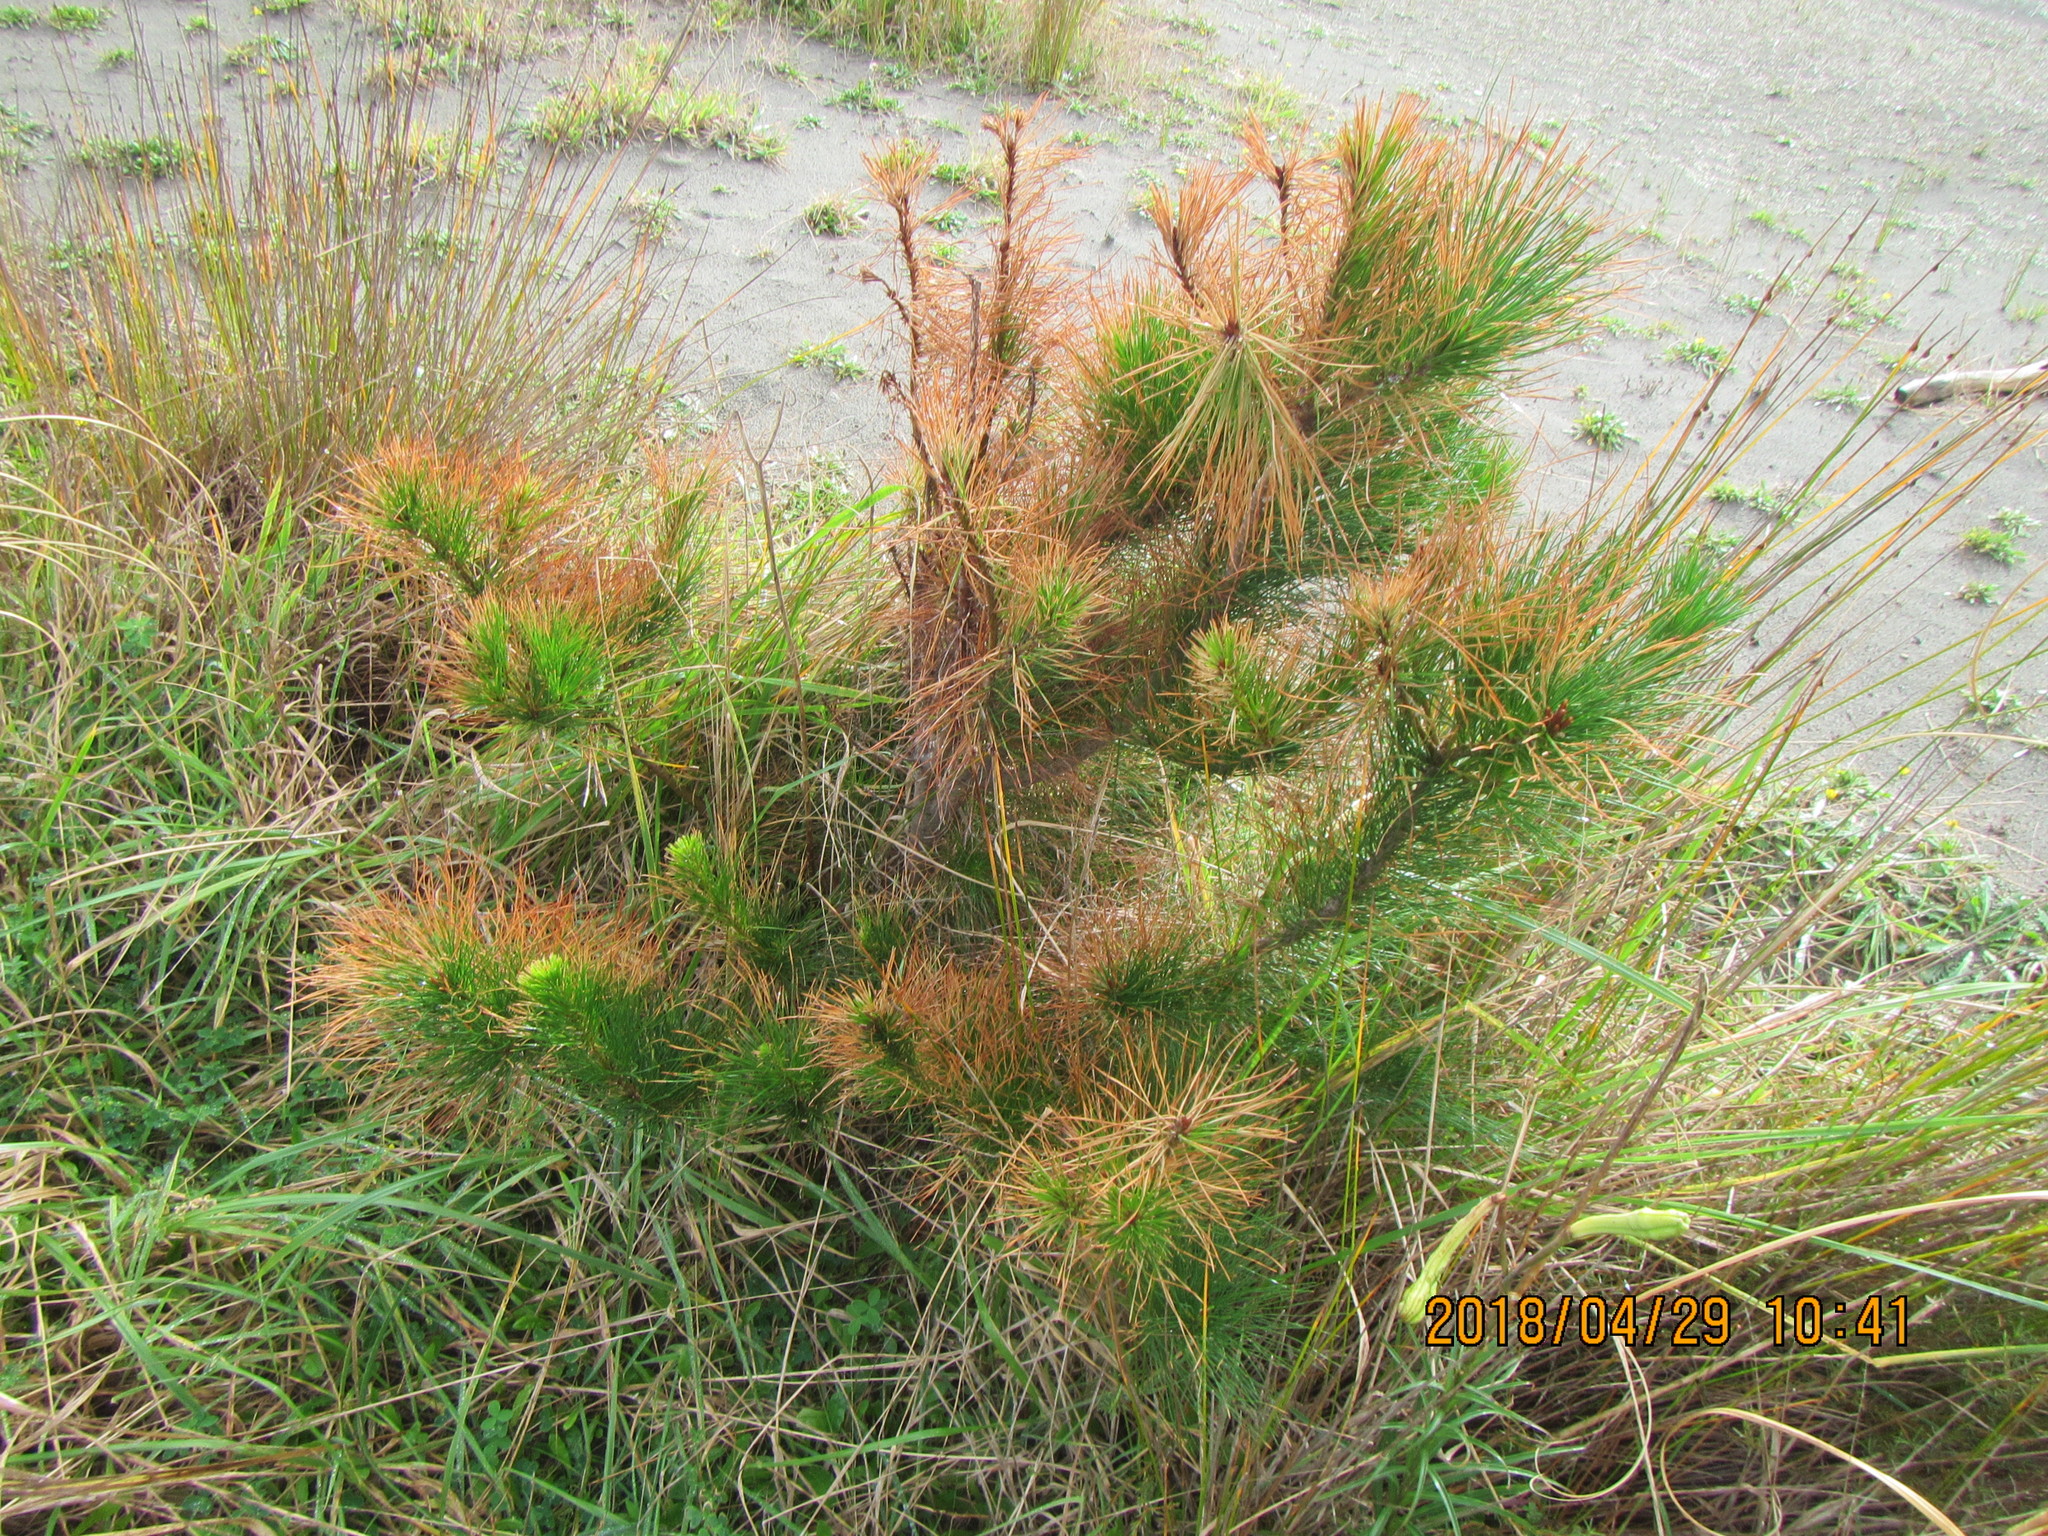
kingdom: Plantae
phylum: Tracheophyta
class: Pinopsida
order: Pinales
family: Pinaceae
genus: Pinus
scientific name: Pinus radiata
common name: Monterey pine
